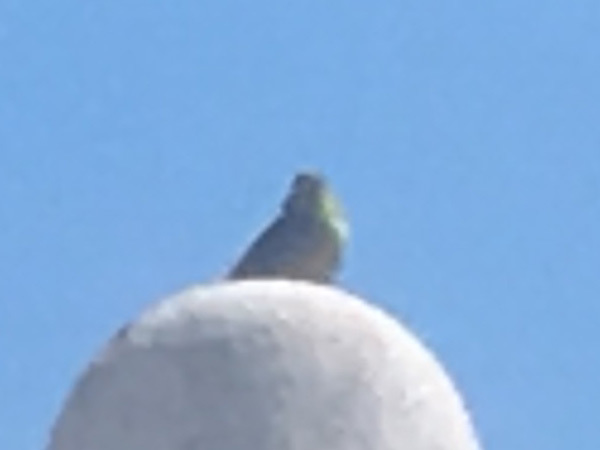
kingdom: Animalia
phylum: Chordata
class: Aves
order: Passeriformes
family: Fringillidae
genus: Serinus
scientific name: Serinus serinus
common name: European serin
